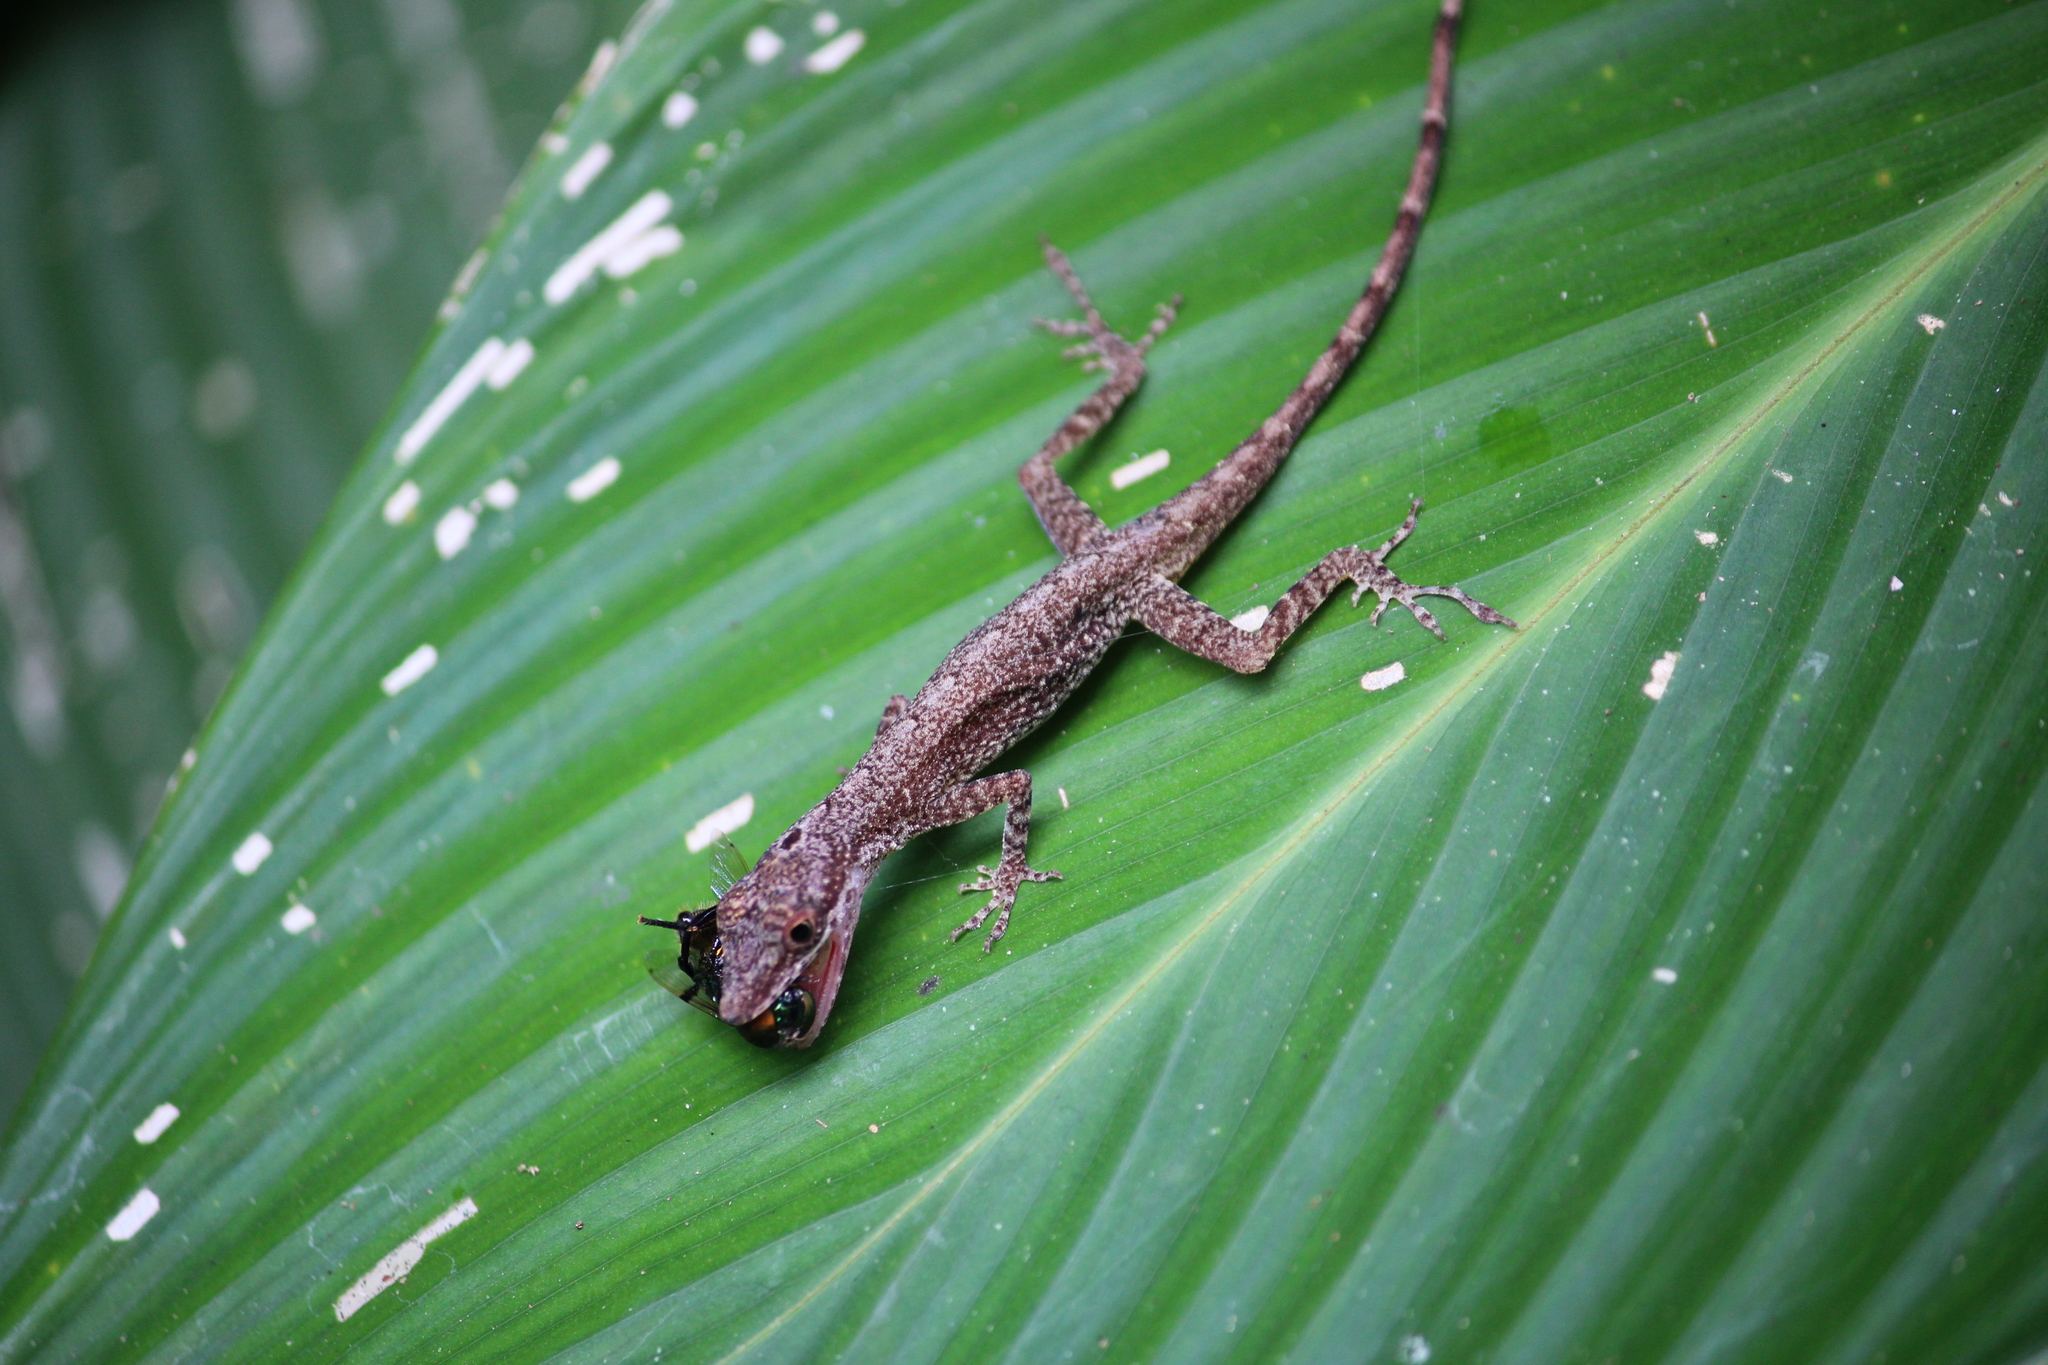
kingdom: Animalia
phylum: Chordata
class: Squamata
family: Dactyloidae
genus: Anolis
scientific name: Anolis polylepis
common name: Many-scaled anole
